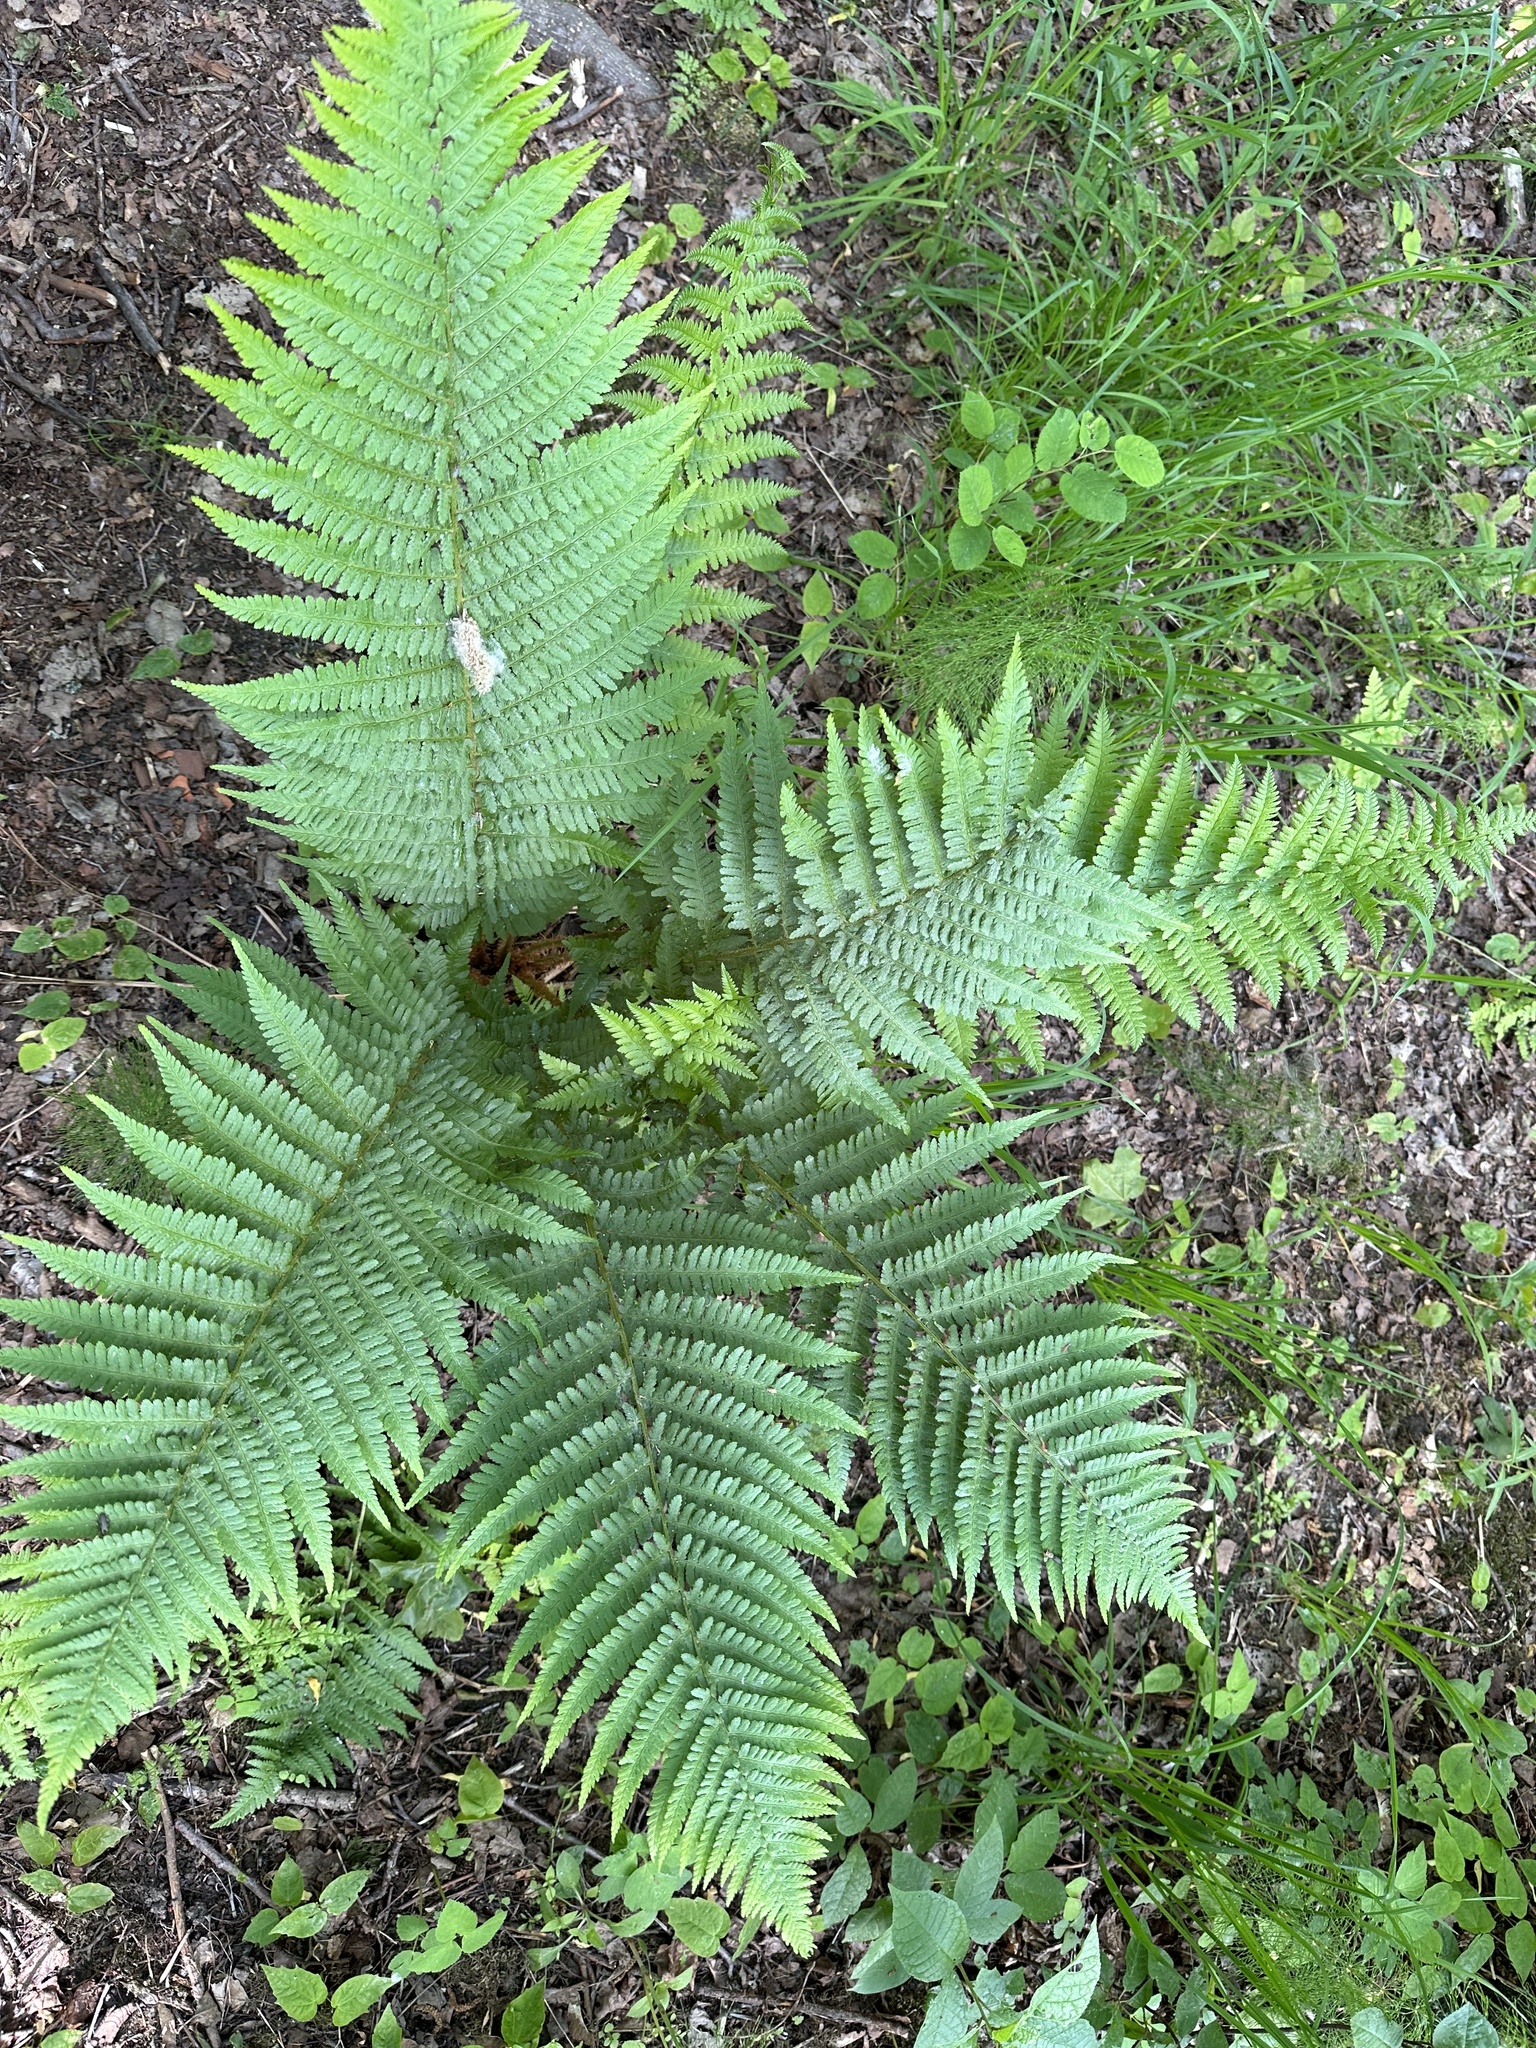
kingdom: Plantae
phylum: Tracheophyta
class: Polypodiopsida
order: Polypodiales
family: Dryopteridaceae
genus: Dryopteris
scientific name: Dryopteris filix-mas
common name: Male fern
